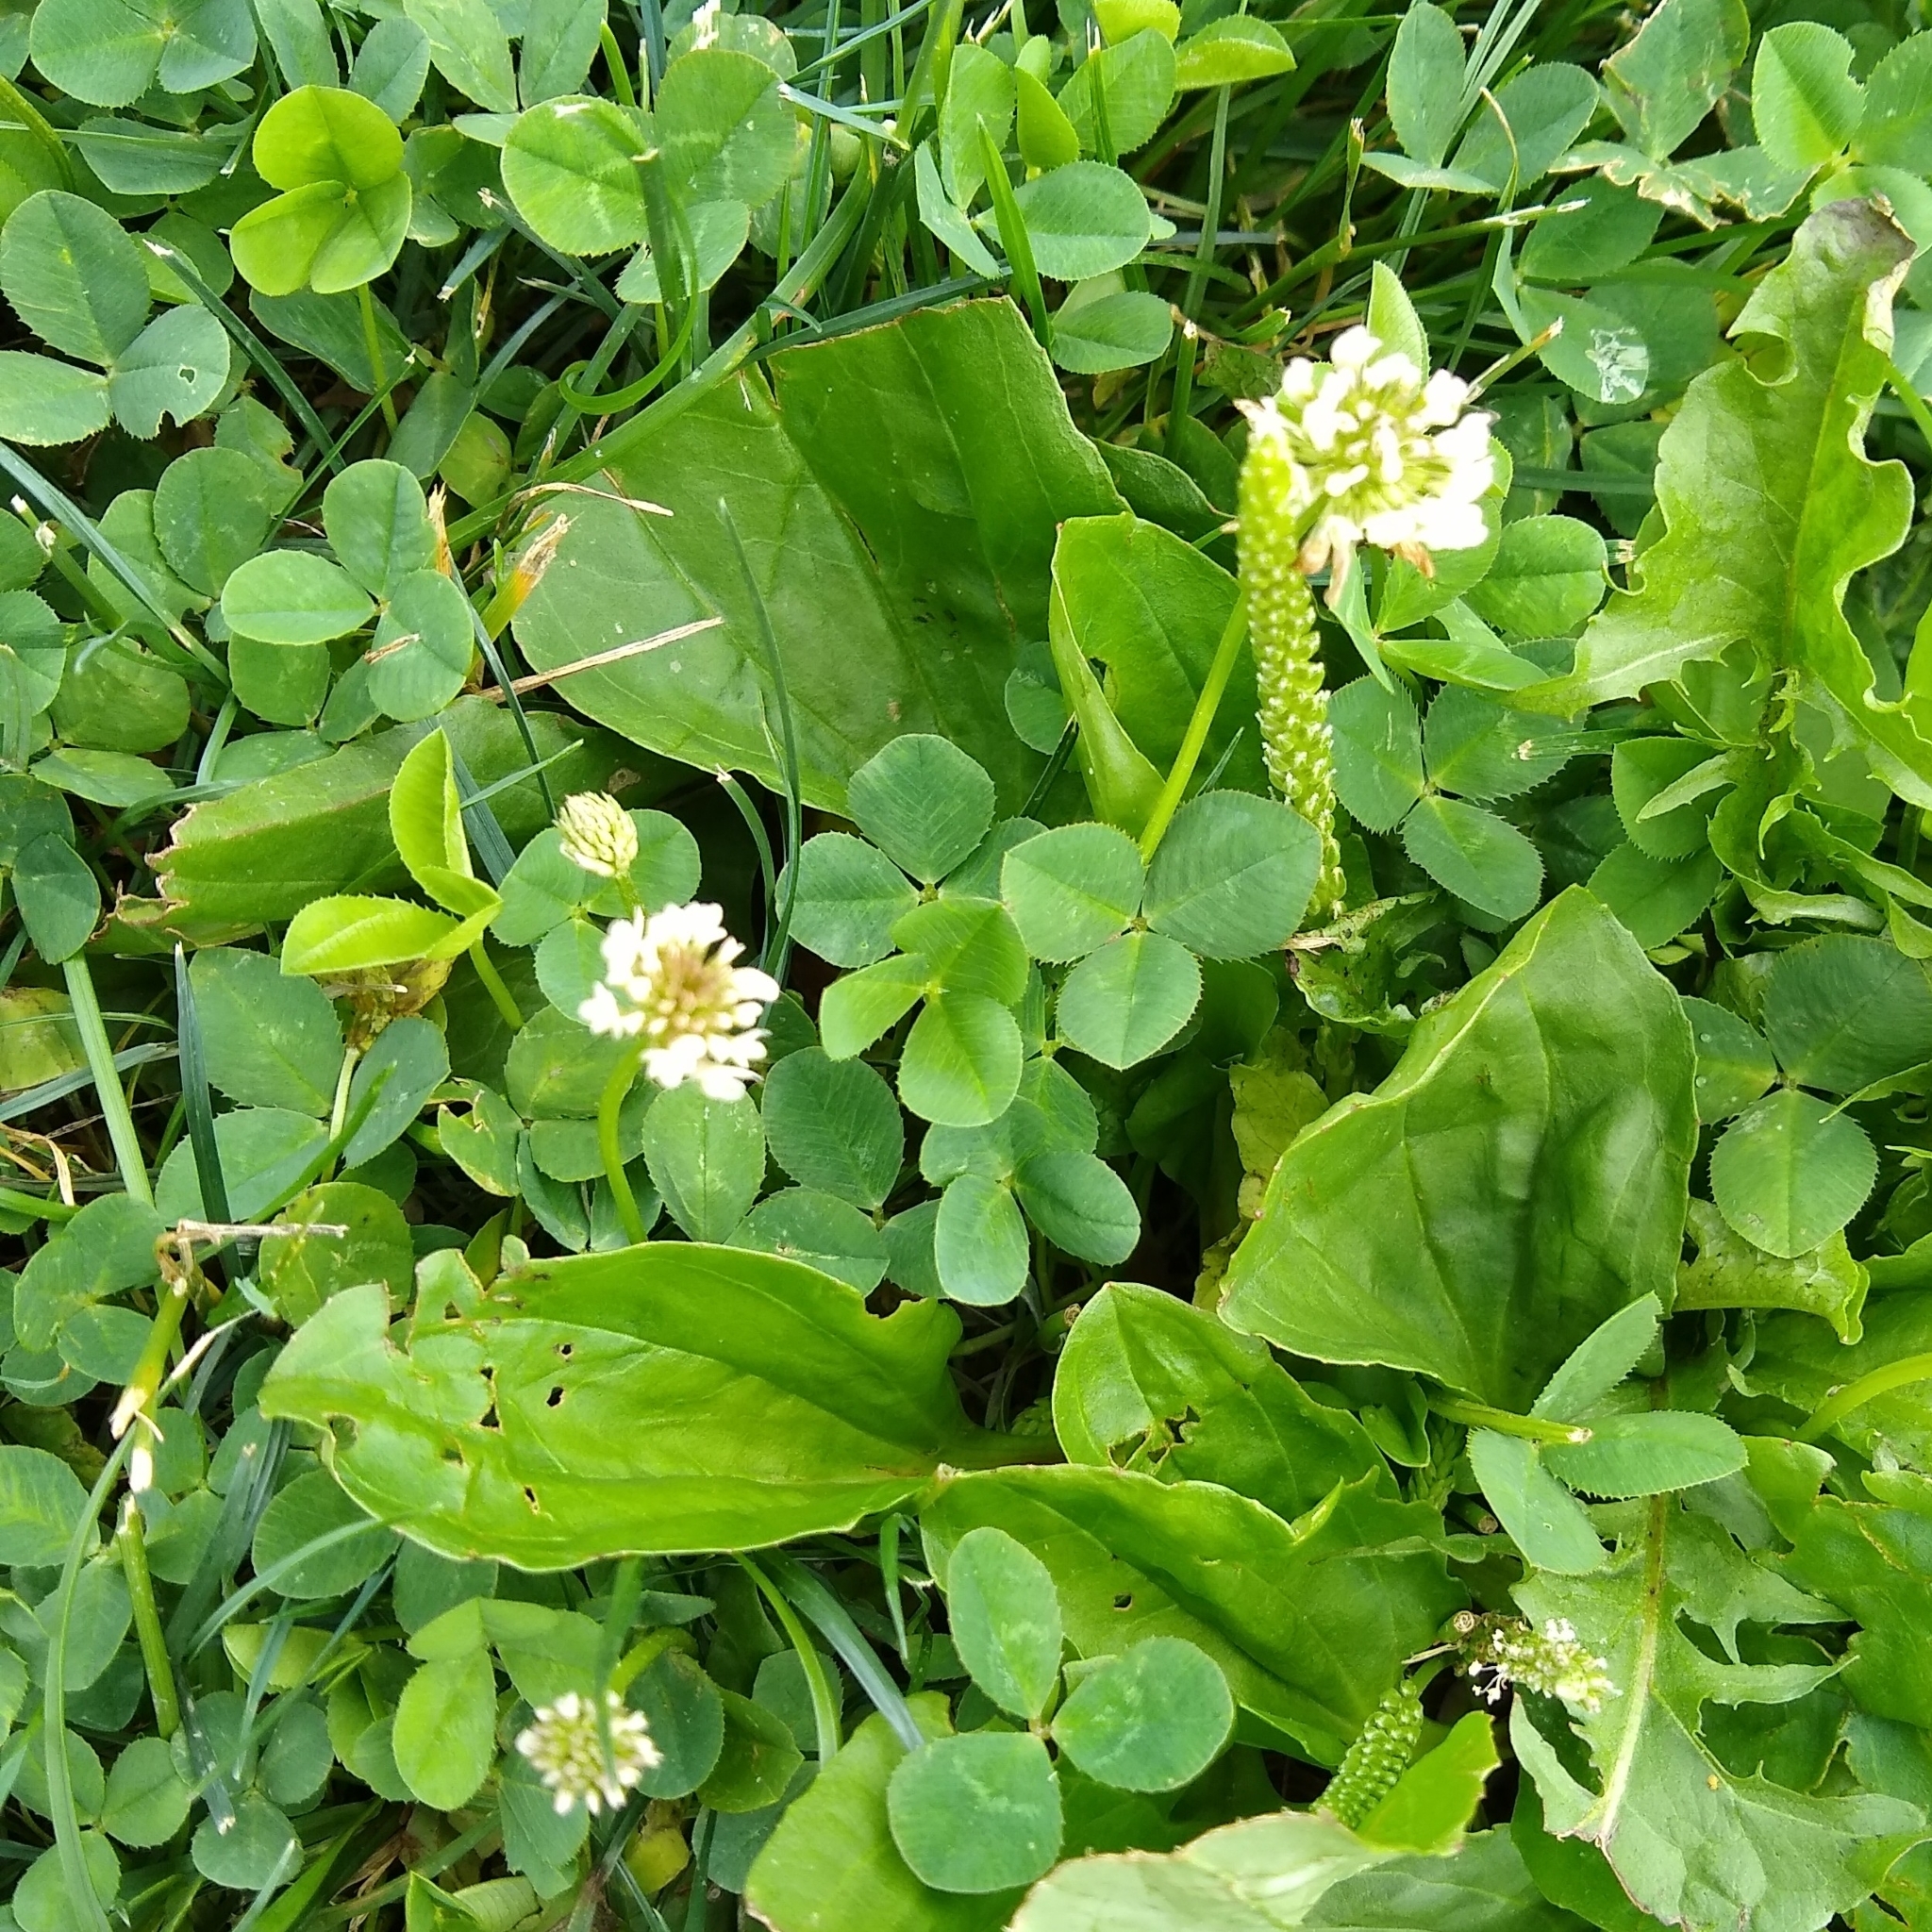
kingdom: Plantae
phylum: Tracheophyta
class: Magnoliopsida
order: Fabales
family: Fabaceae
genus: Trifolium
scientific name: Trifolium repens
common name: White clover
